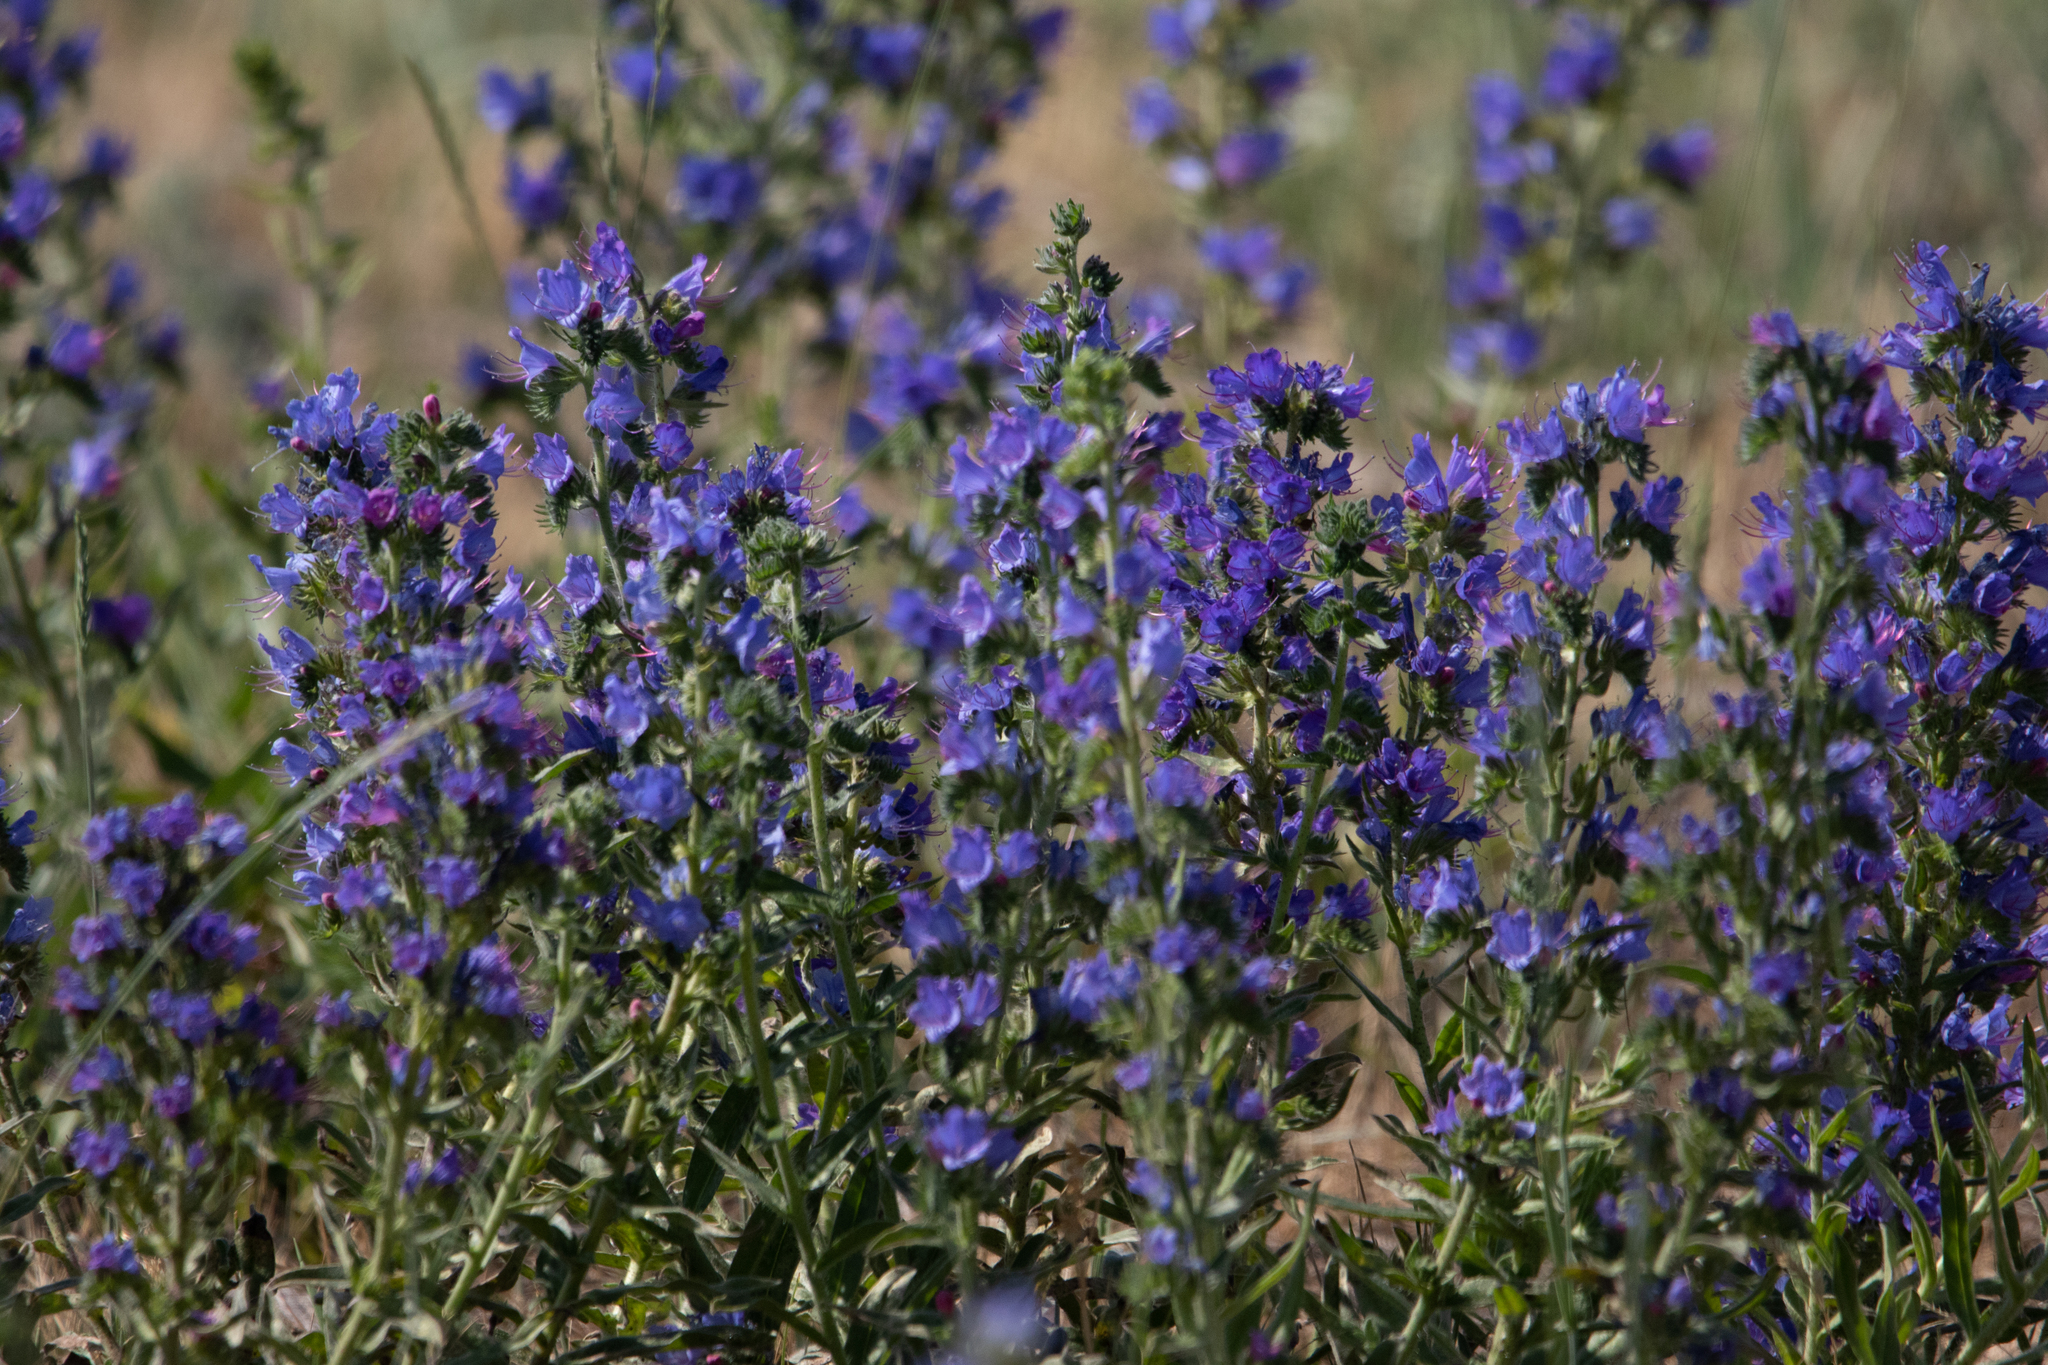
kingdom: Plantae
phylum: Tracheophyta
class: Magnoliopsida
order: Boraginales
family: Boraginaceae
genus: Echium
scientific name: Echium vulgare
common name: Common viper's bugloss
